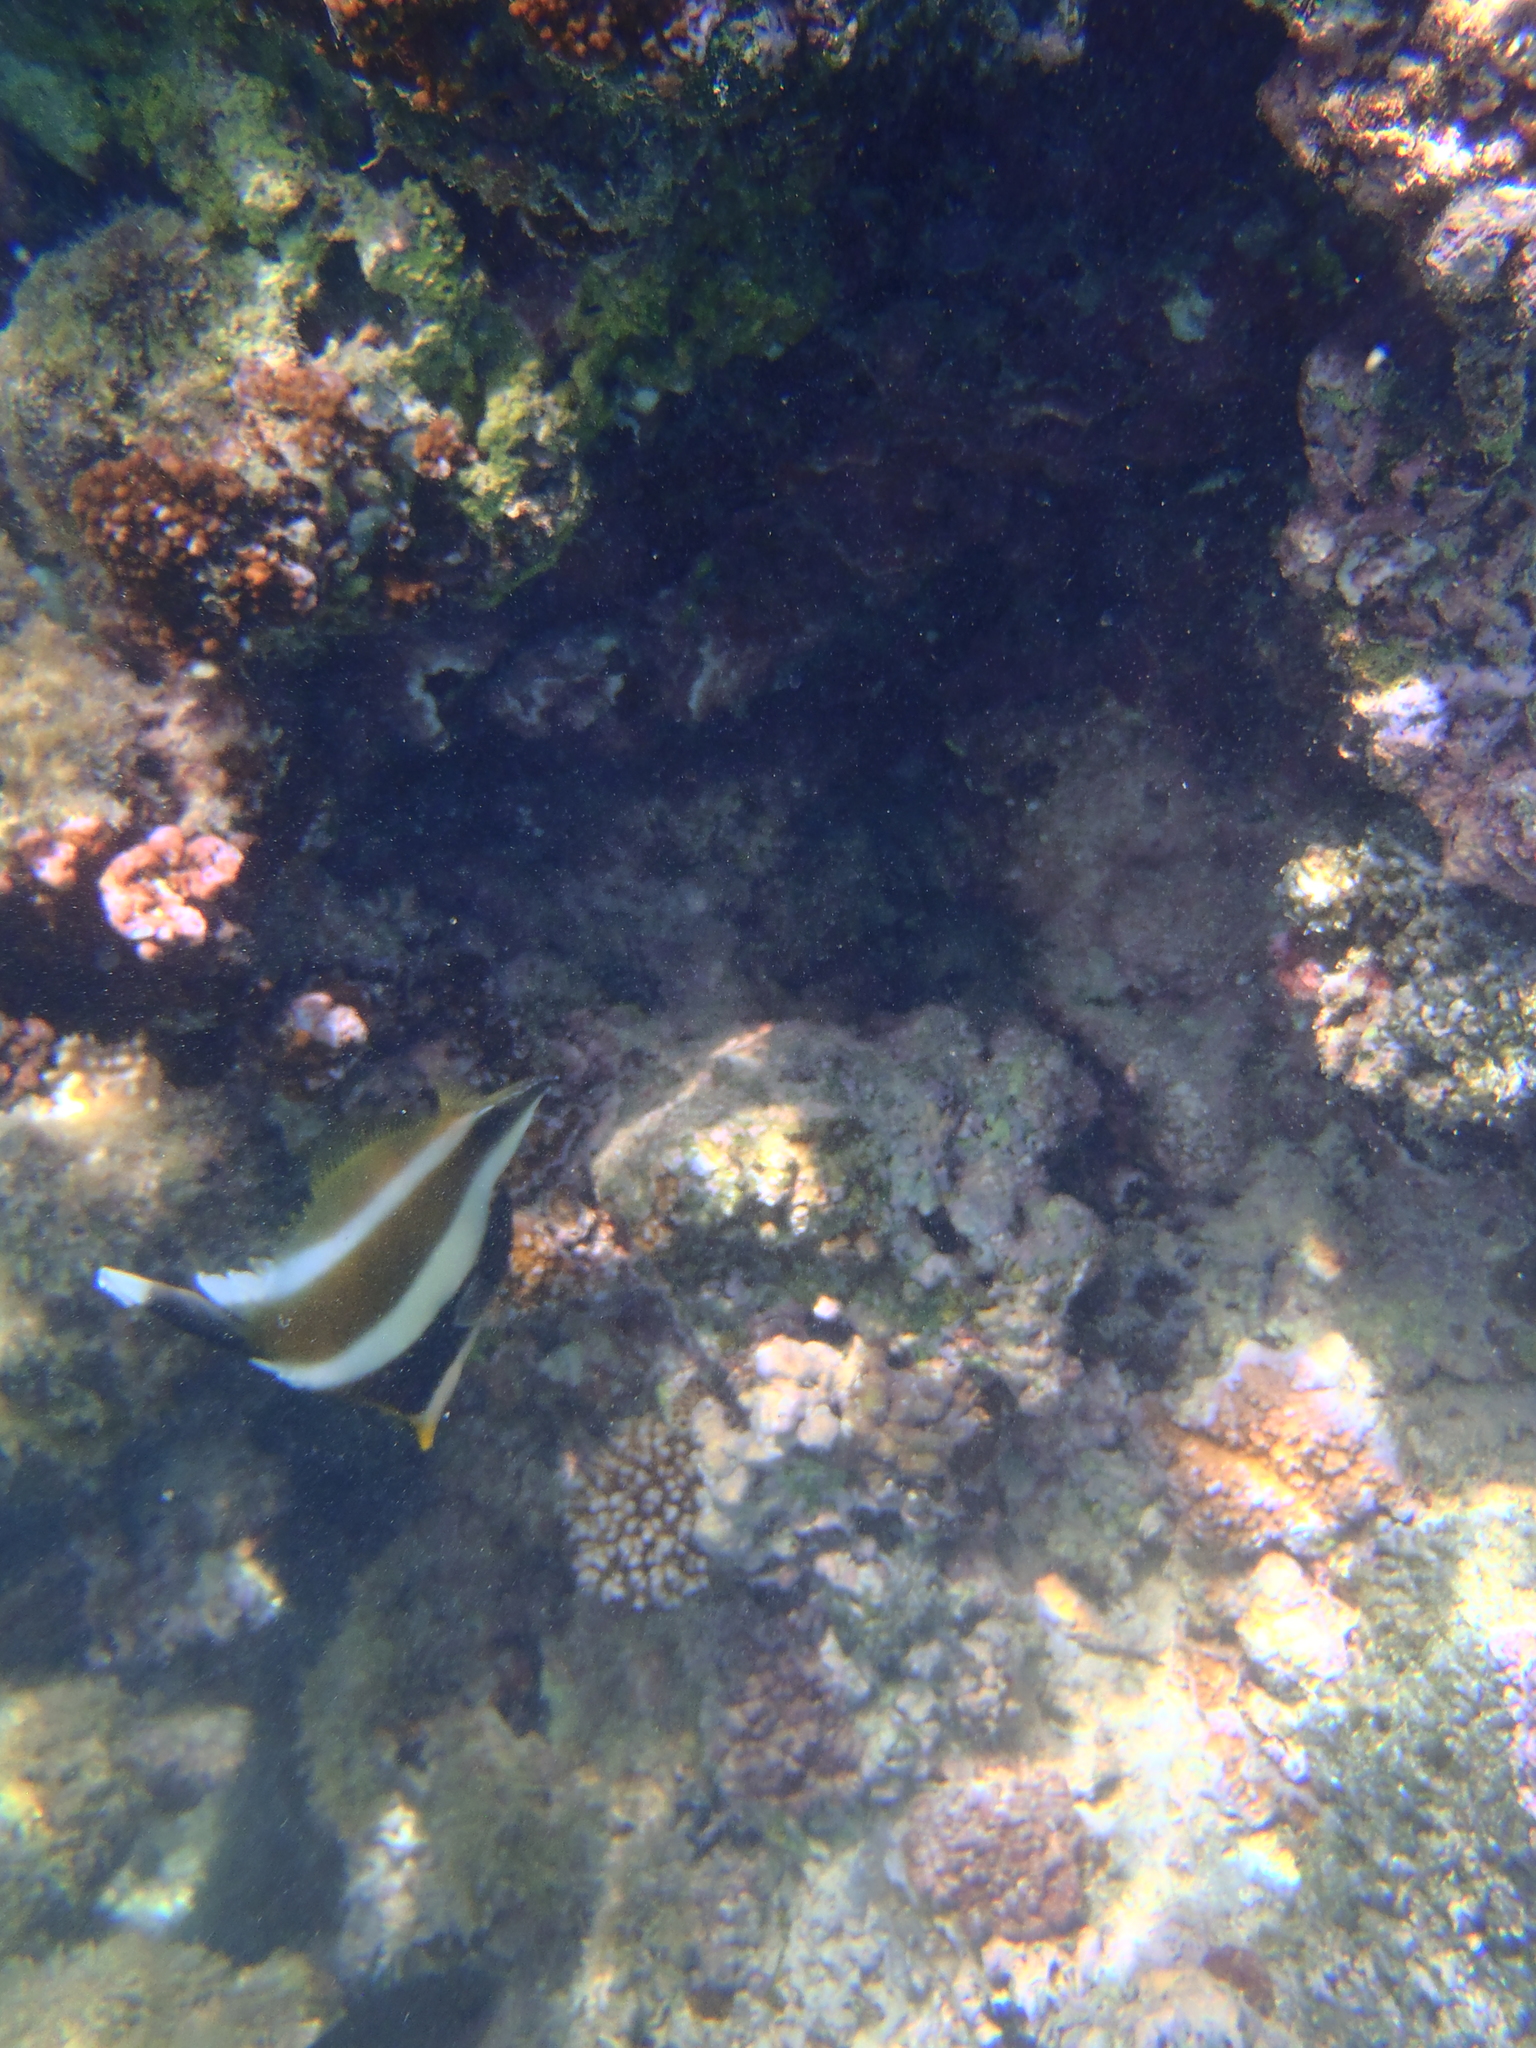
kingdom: Animalia
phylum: Chordata
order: Perciformes
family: Chaetodontidae
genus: Heniochus
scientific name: Heniochus chrysostomus
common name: Horned bannerfish
